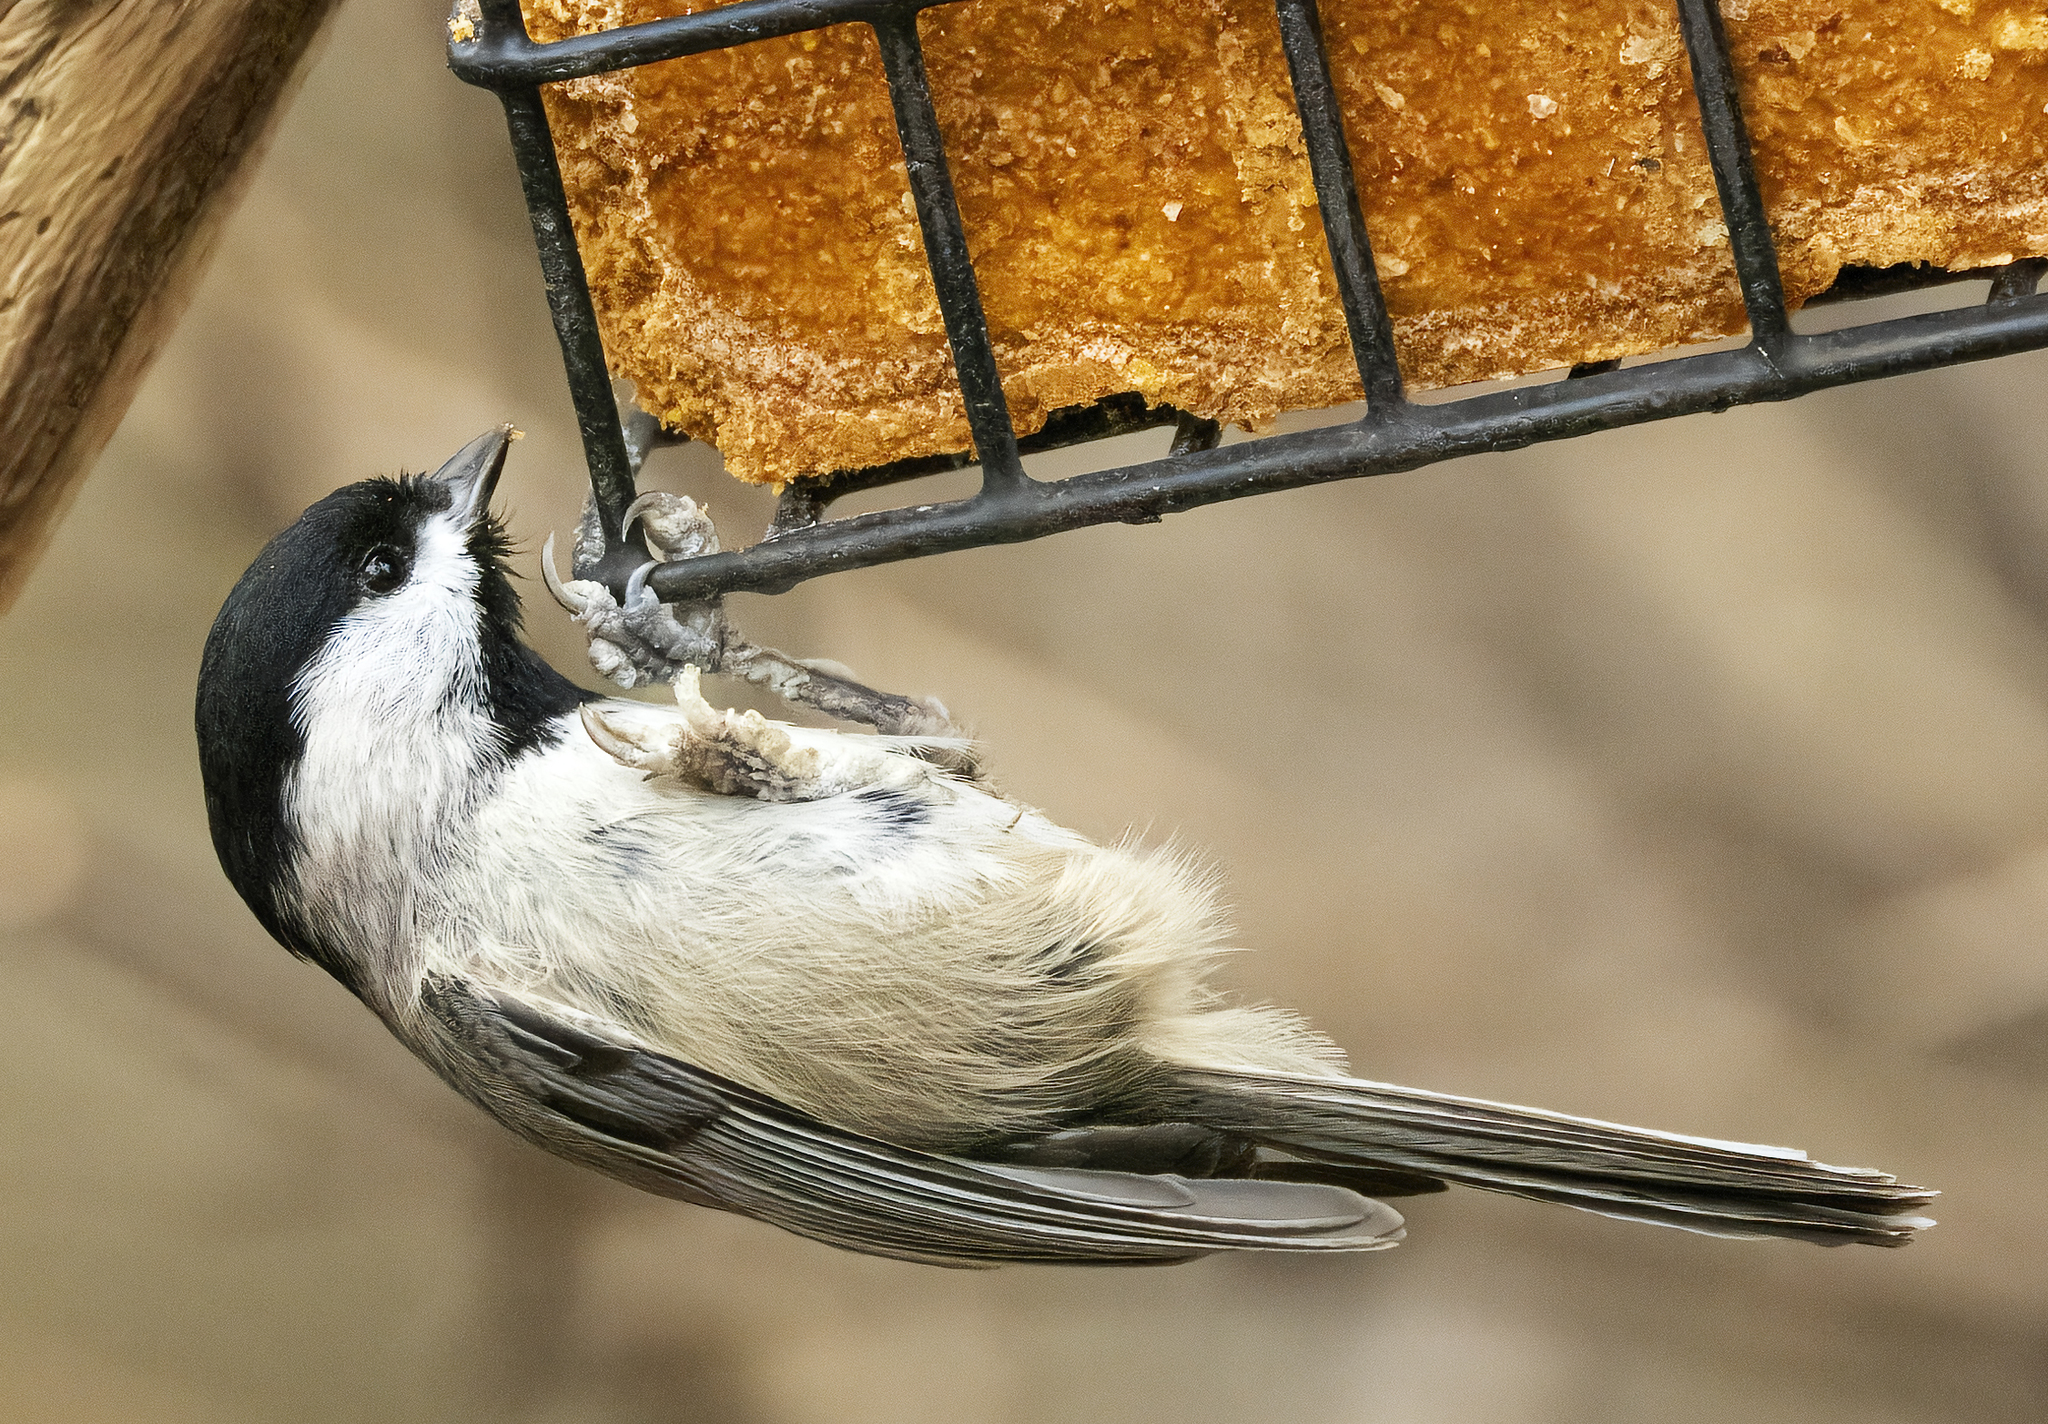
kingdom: Animalia
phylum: Chordata
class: Aves
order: Passeriformes
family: Paridae
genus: Poecile
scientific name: Poecile carolinensis
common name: Carolina chickadee
